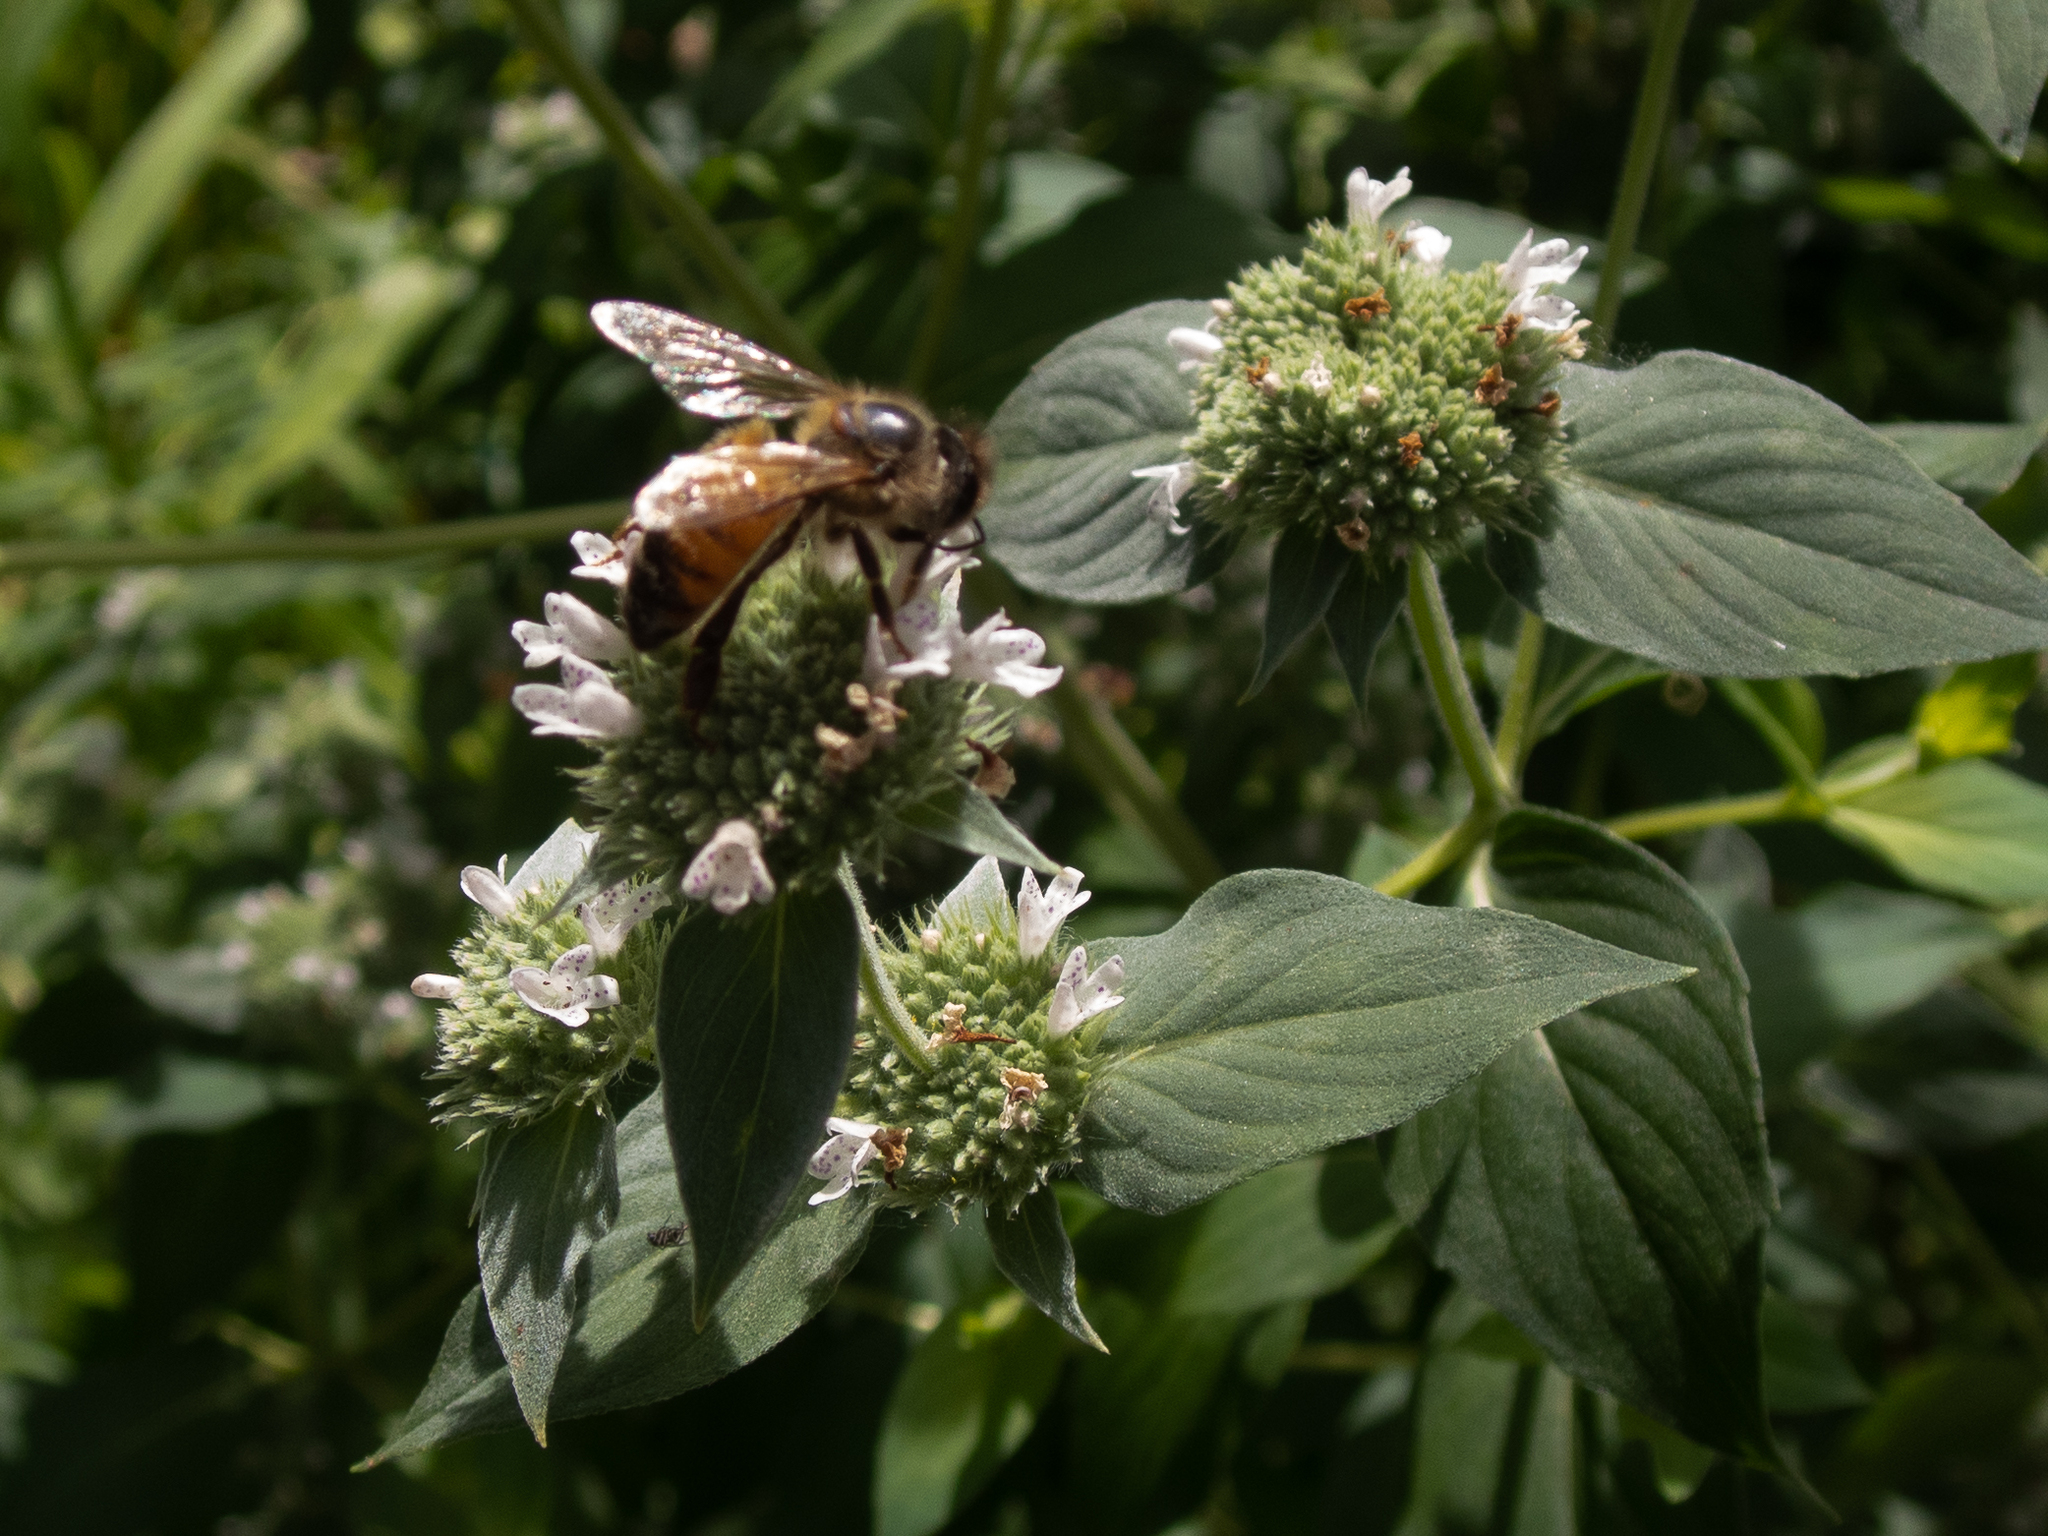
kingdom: Animalia
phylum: Arthropoda
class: Insecta
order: Hymenoptera
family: Apidae
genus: Apis
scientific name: Apis mellifera
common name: Honey bee
